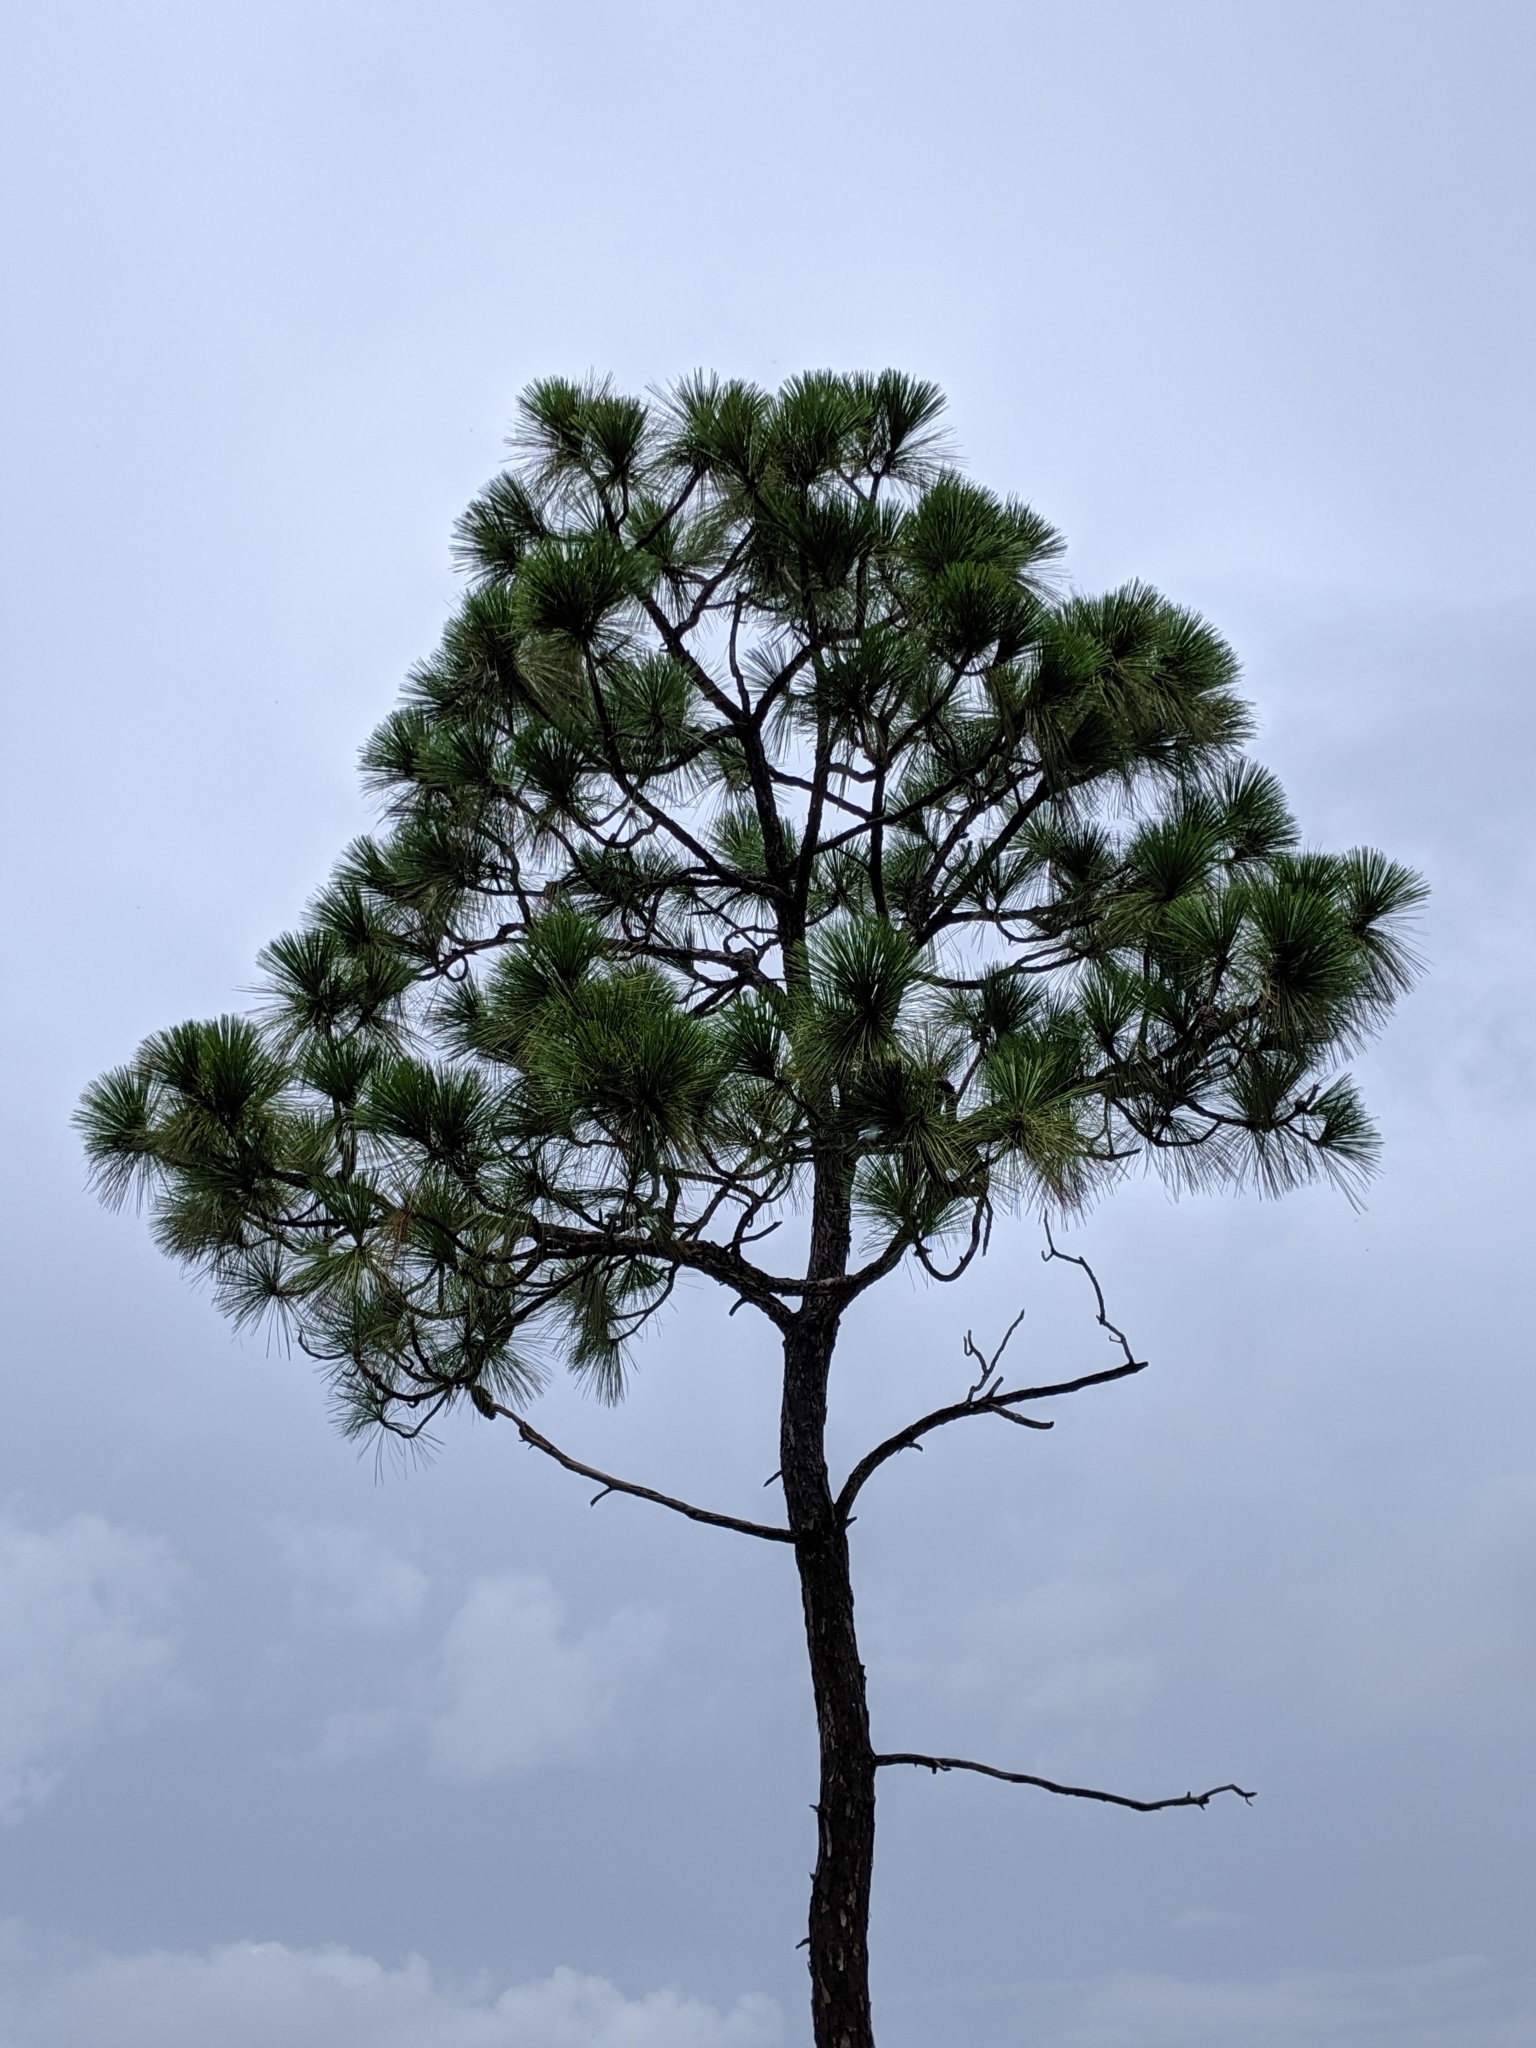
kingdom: Plantae
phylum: Tracheophyta
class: Pinopsida
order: Pinales
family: Pinaceae
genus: Pinus
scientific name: Pinus palustris
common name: Longleaf pine
